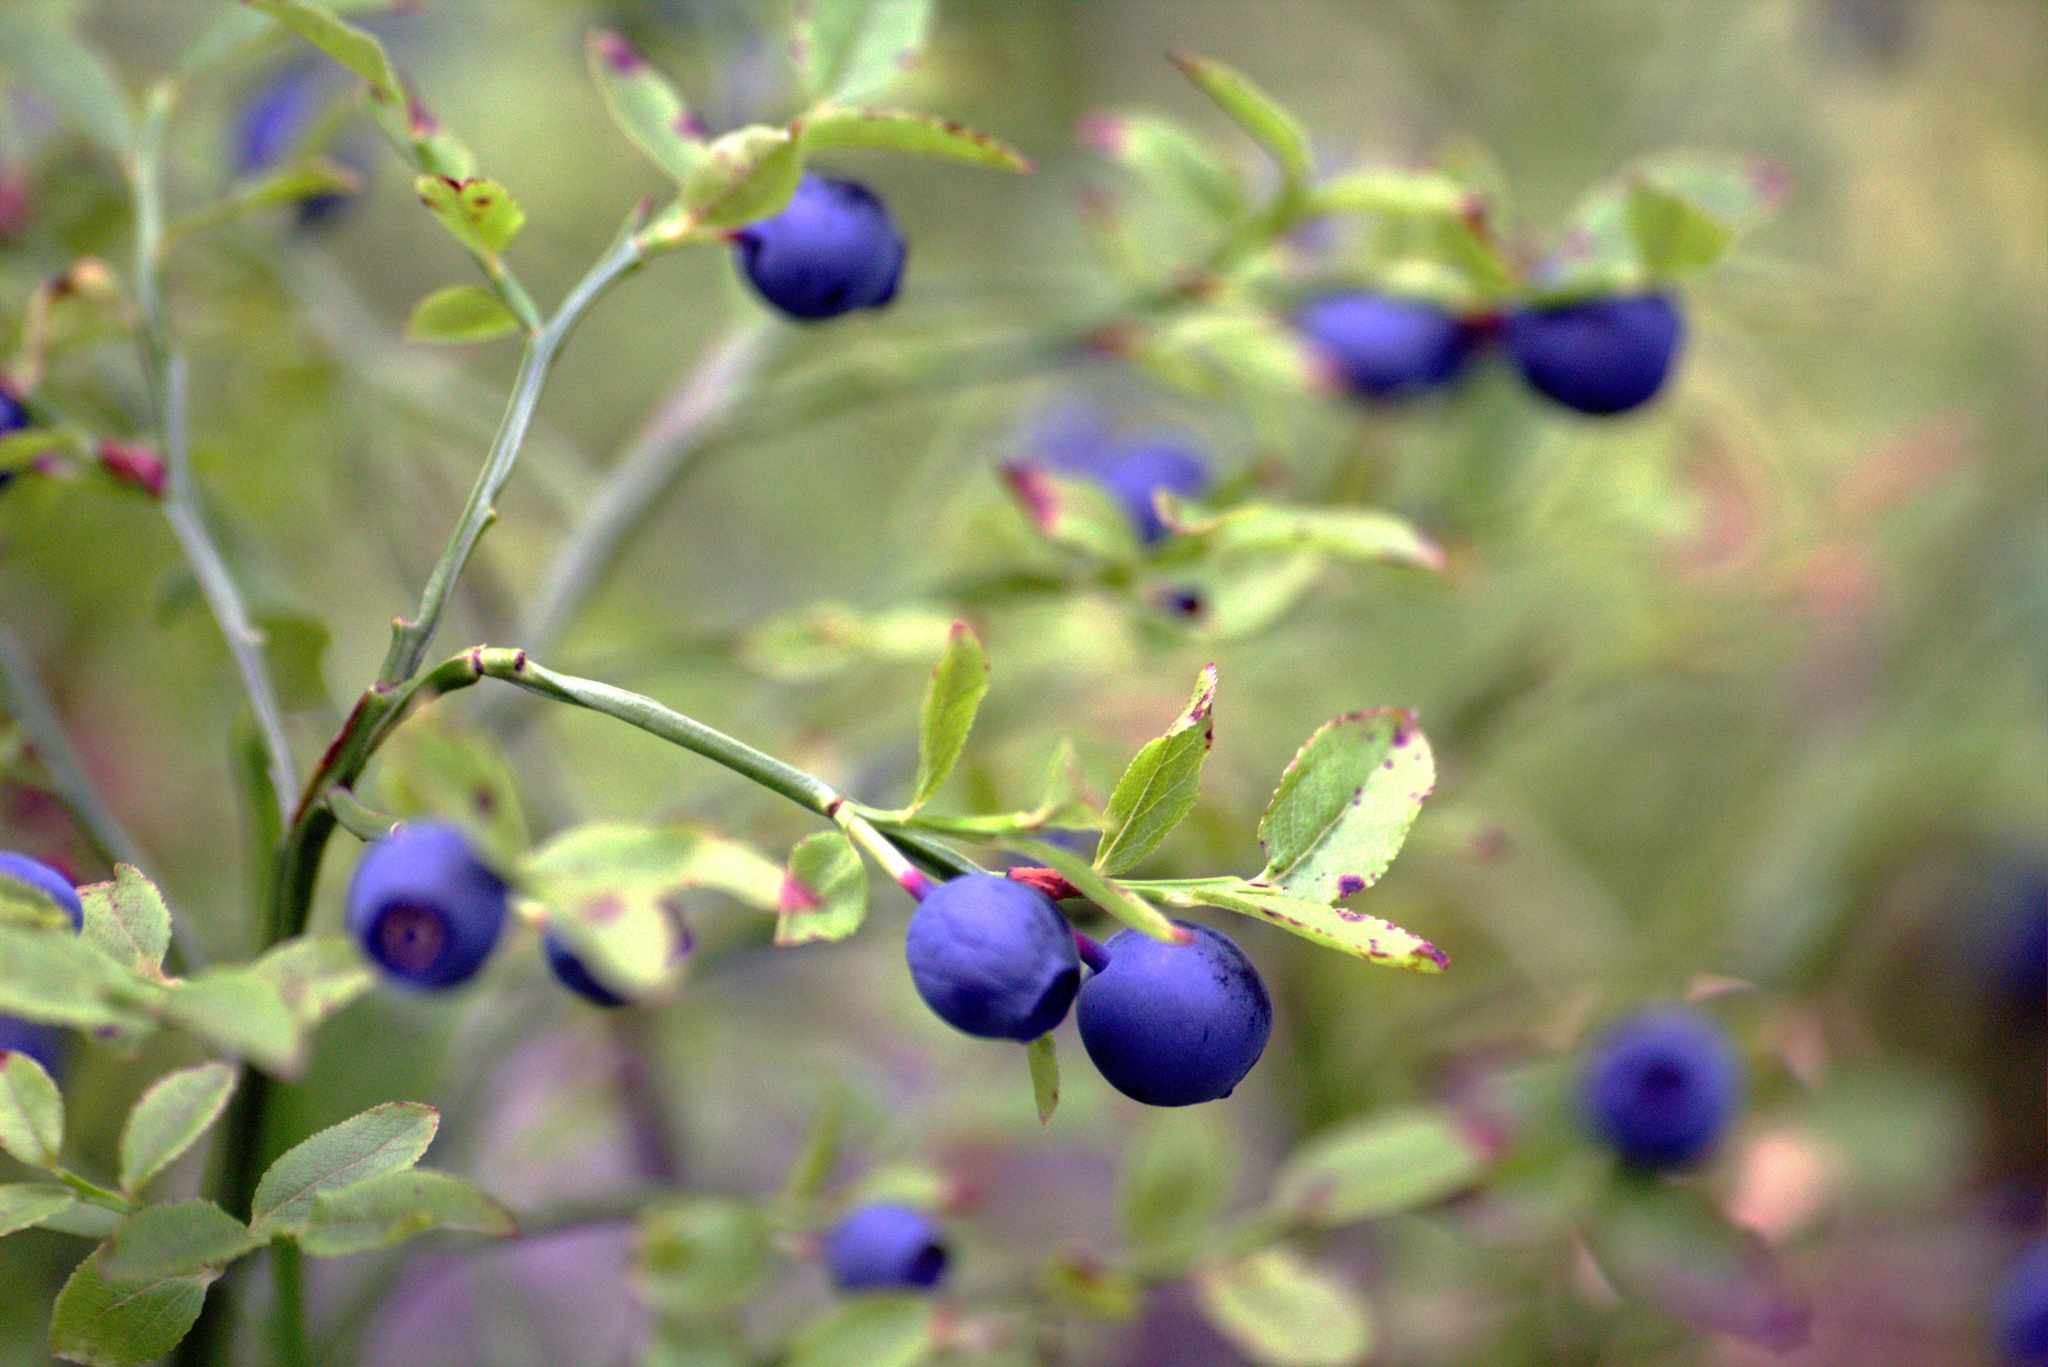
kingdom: Plantae
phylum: Tracheophyta
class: Magnoliopsida
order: Ericales
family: Ericaceae
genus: Vaccinium
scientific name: Vaccinium myrtillus
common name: Bilberry
